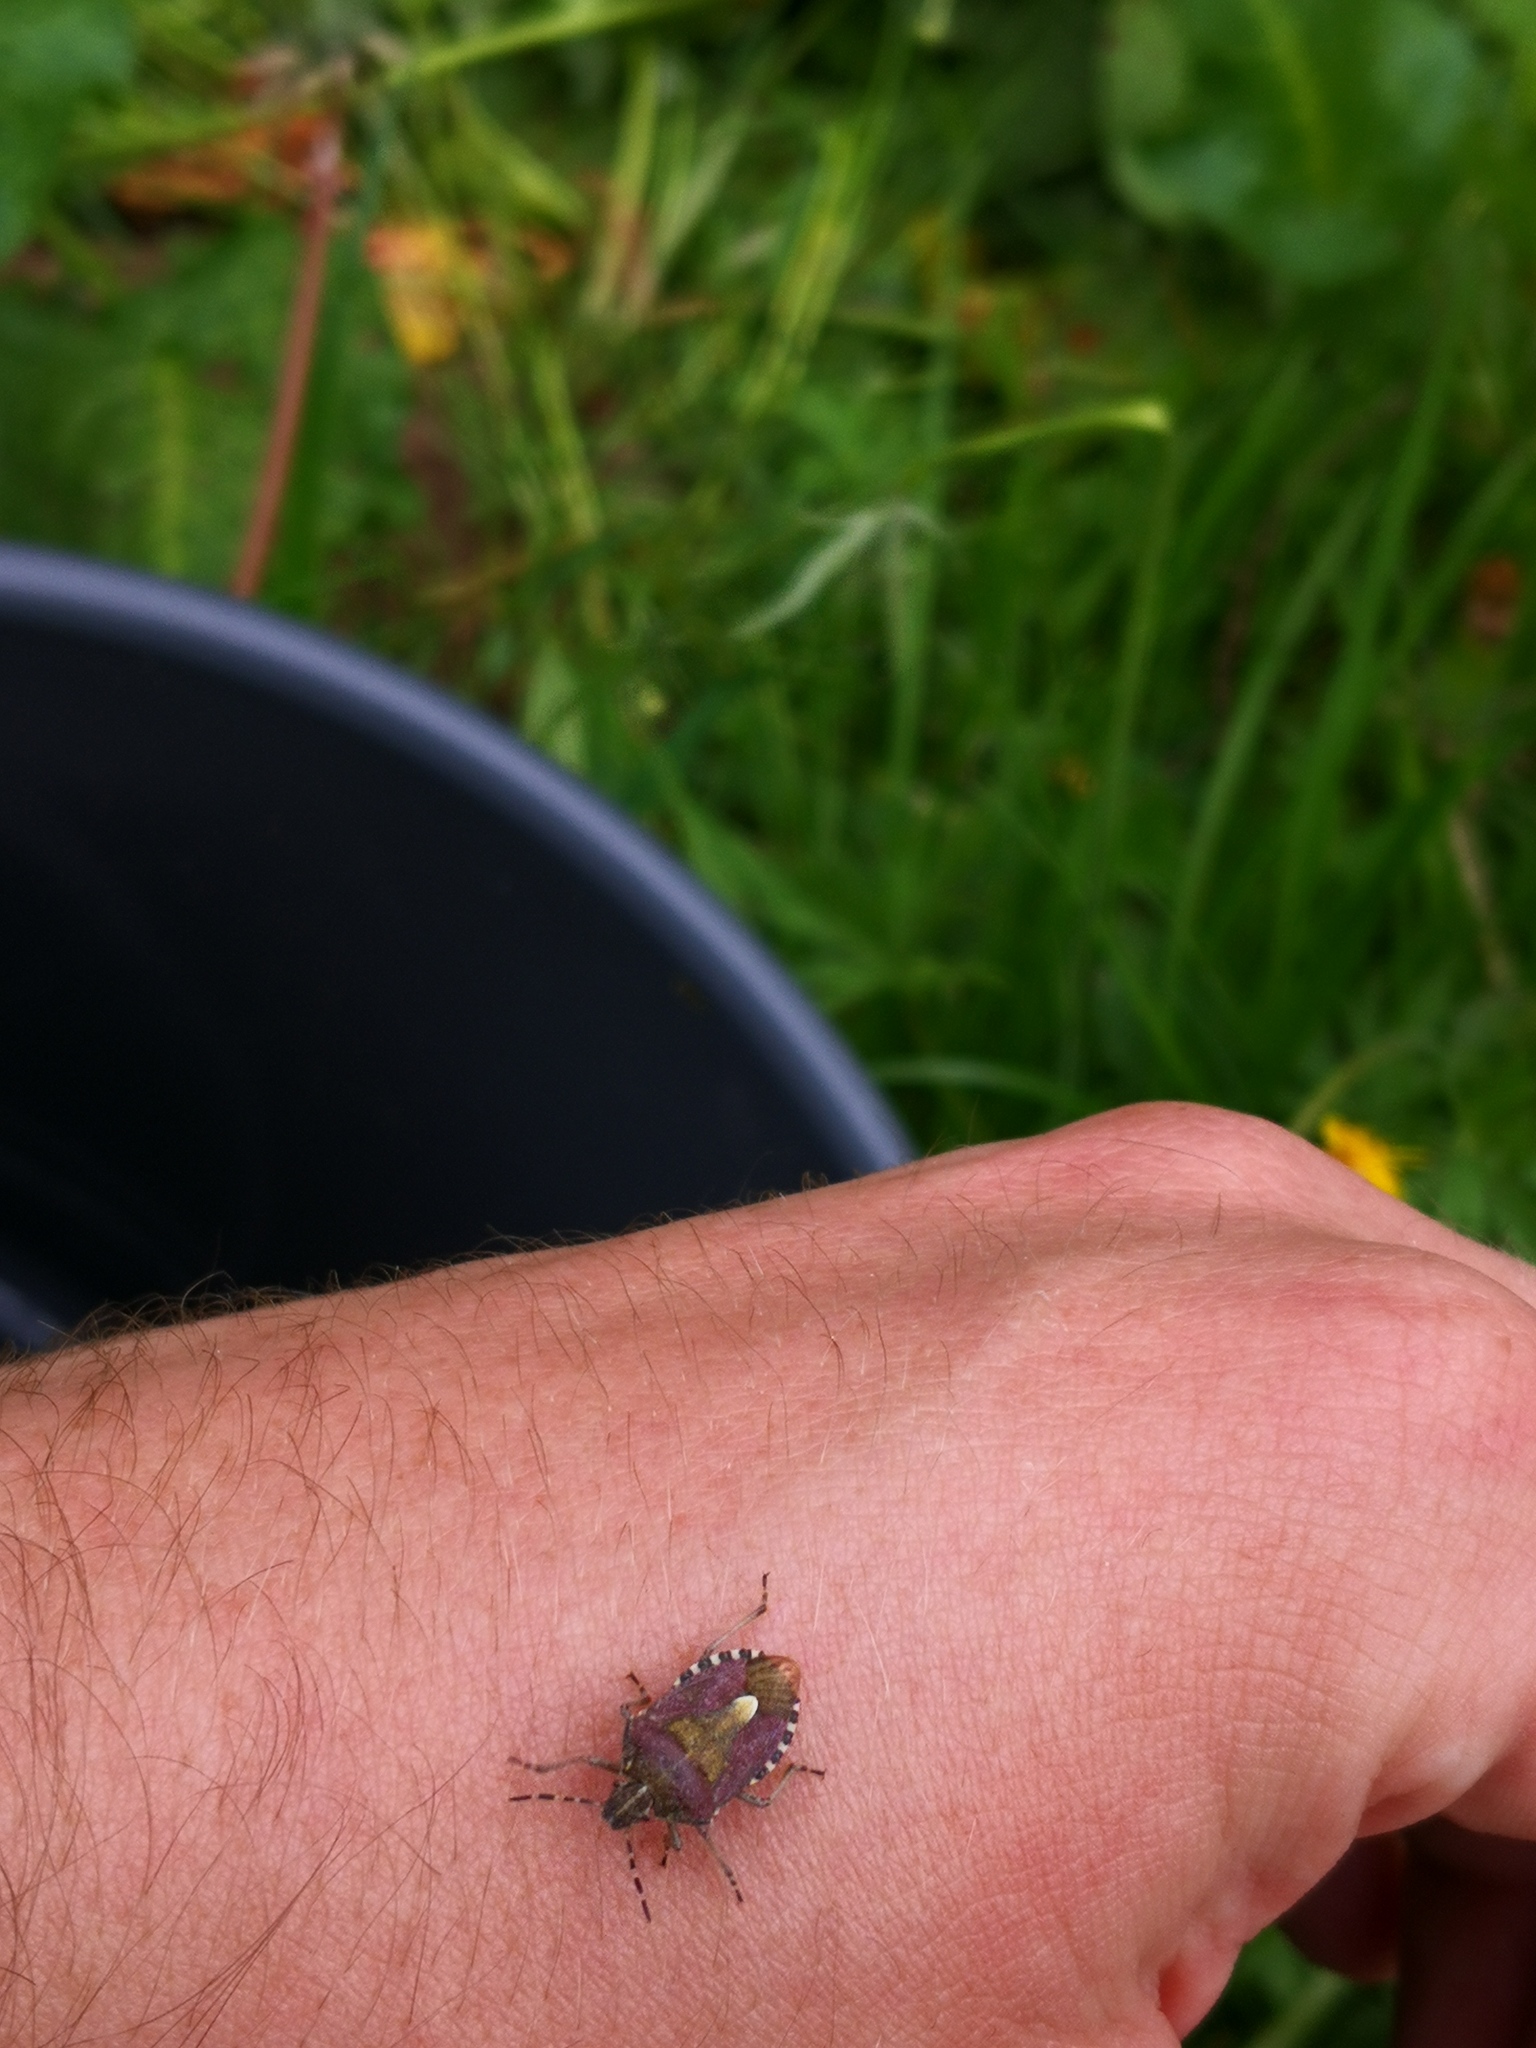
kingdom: Animalia
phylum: Arthropoda
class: Insecta
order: Hemiptera
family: Pentatomidae
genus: Dolycoris
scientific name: Dolycoris baccarum
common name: Sloe bug
